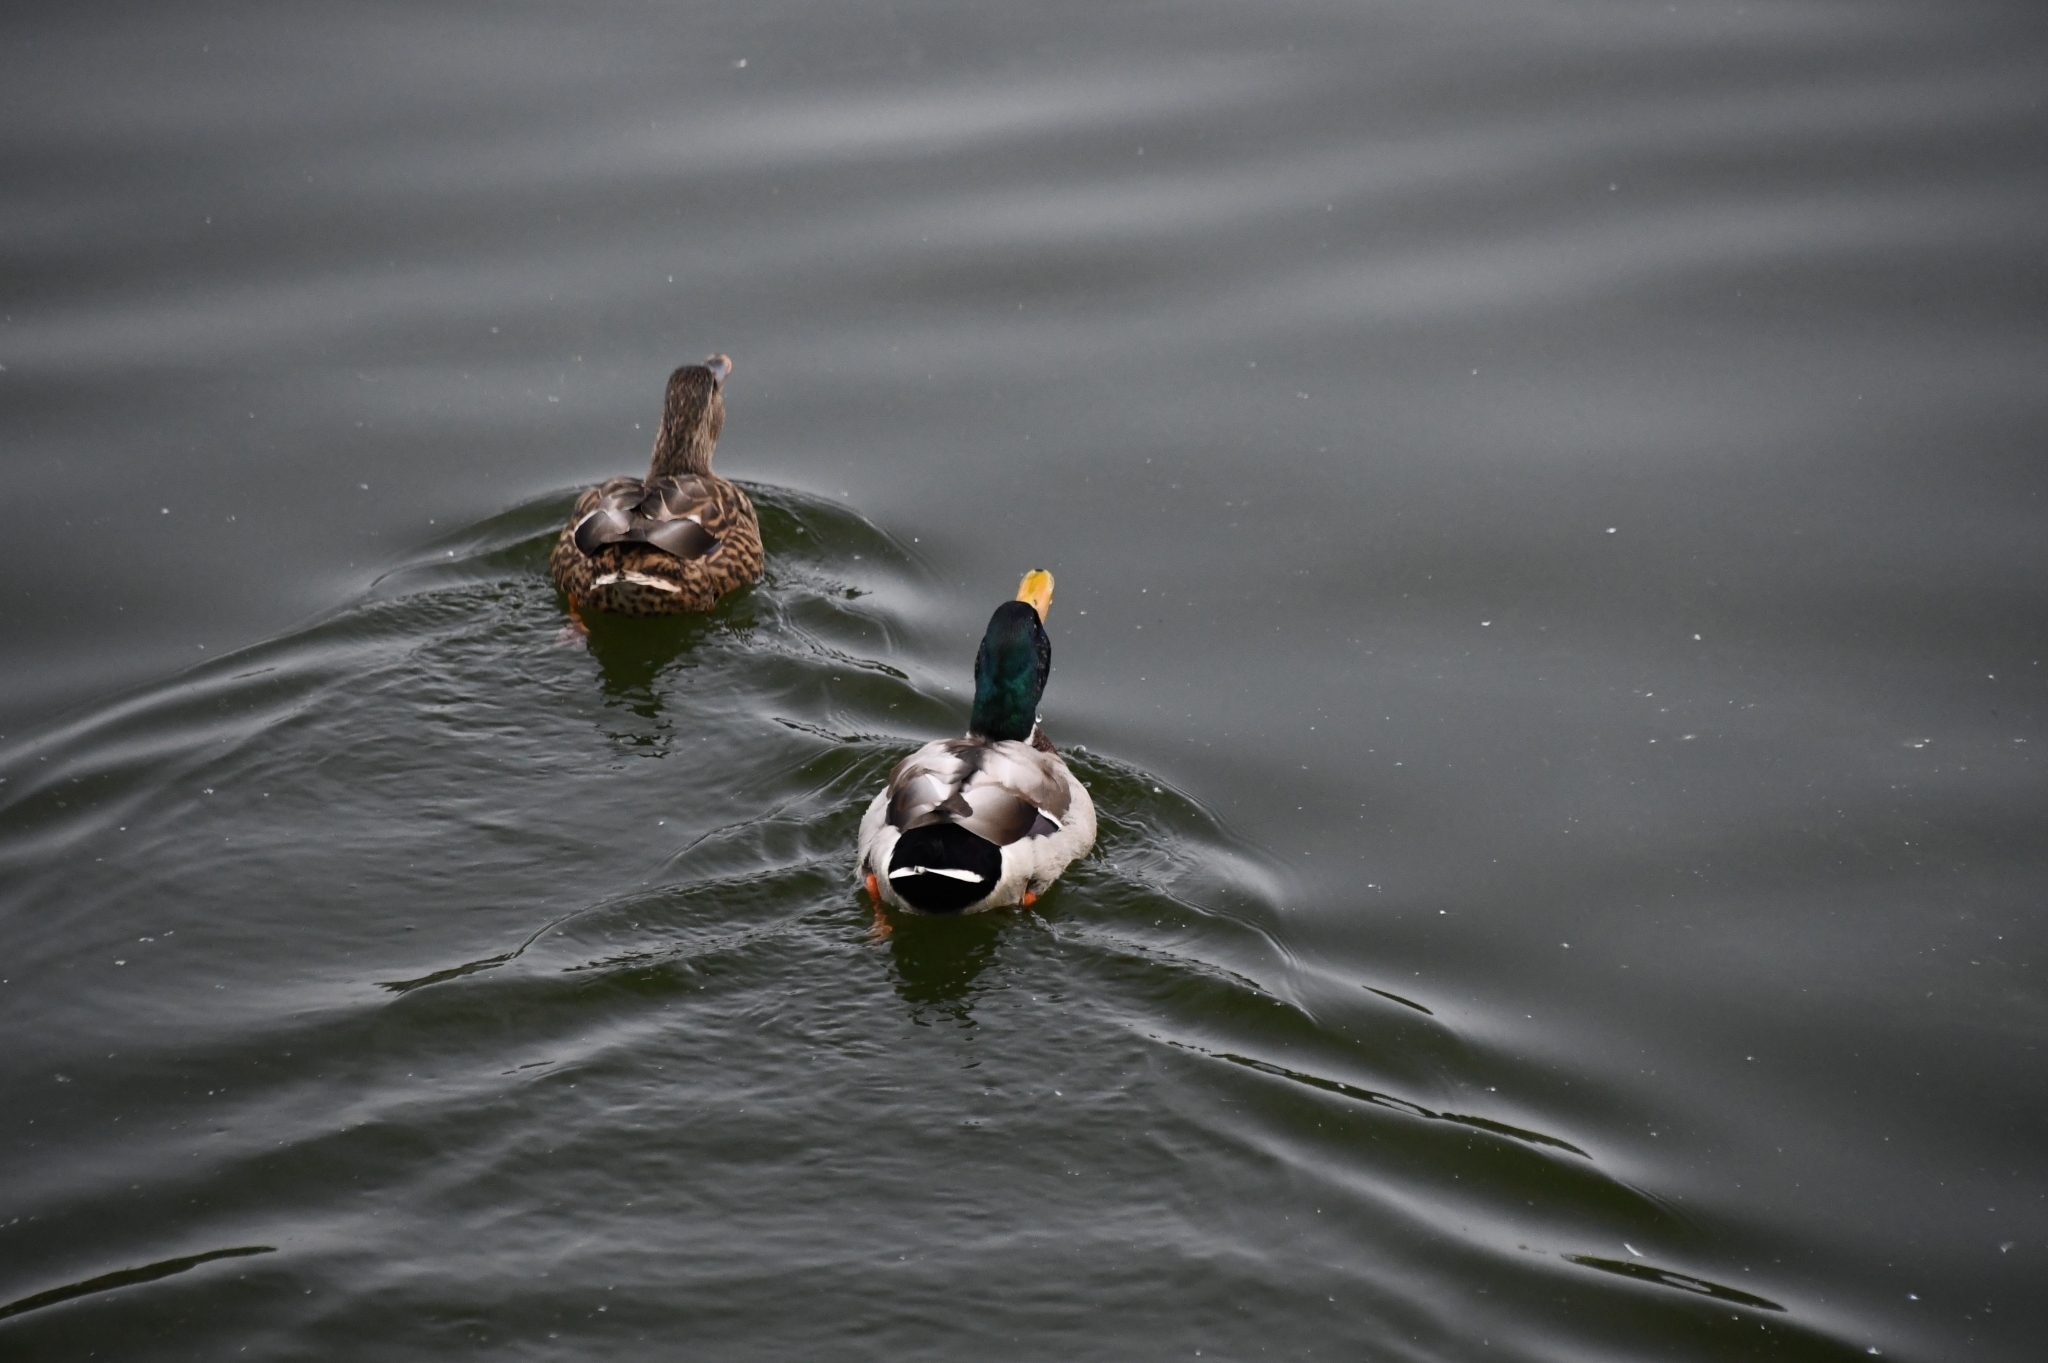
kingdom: Animalia
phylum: Chordata
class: Aves
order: Anseriformes
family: Anatidae
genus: Anas
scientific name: Anas platyrhynchos
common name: Mallard
